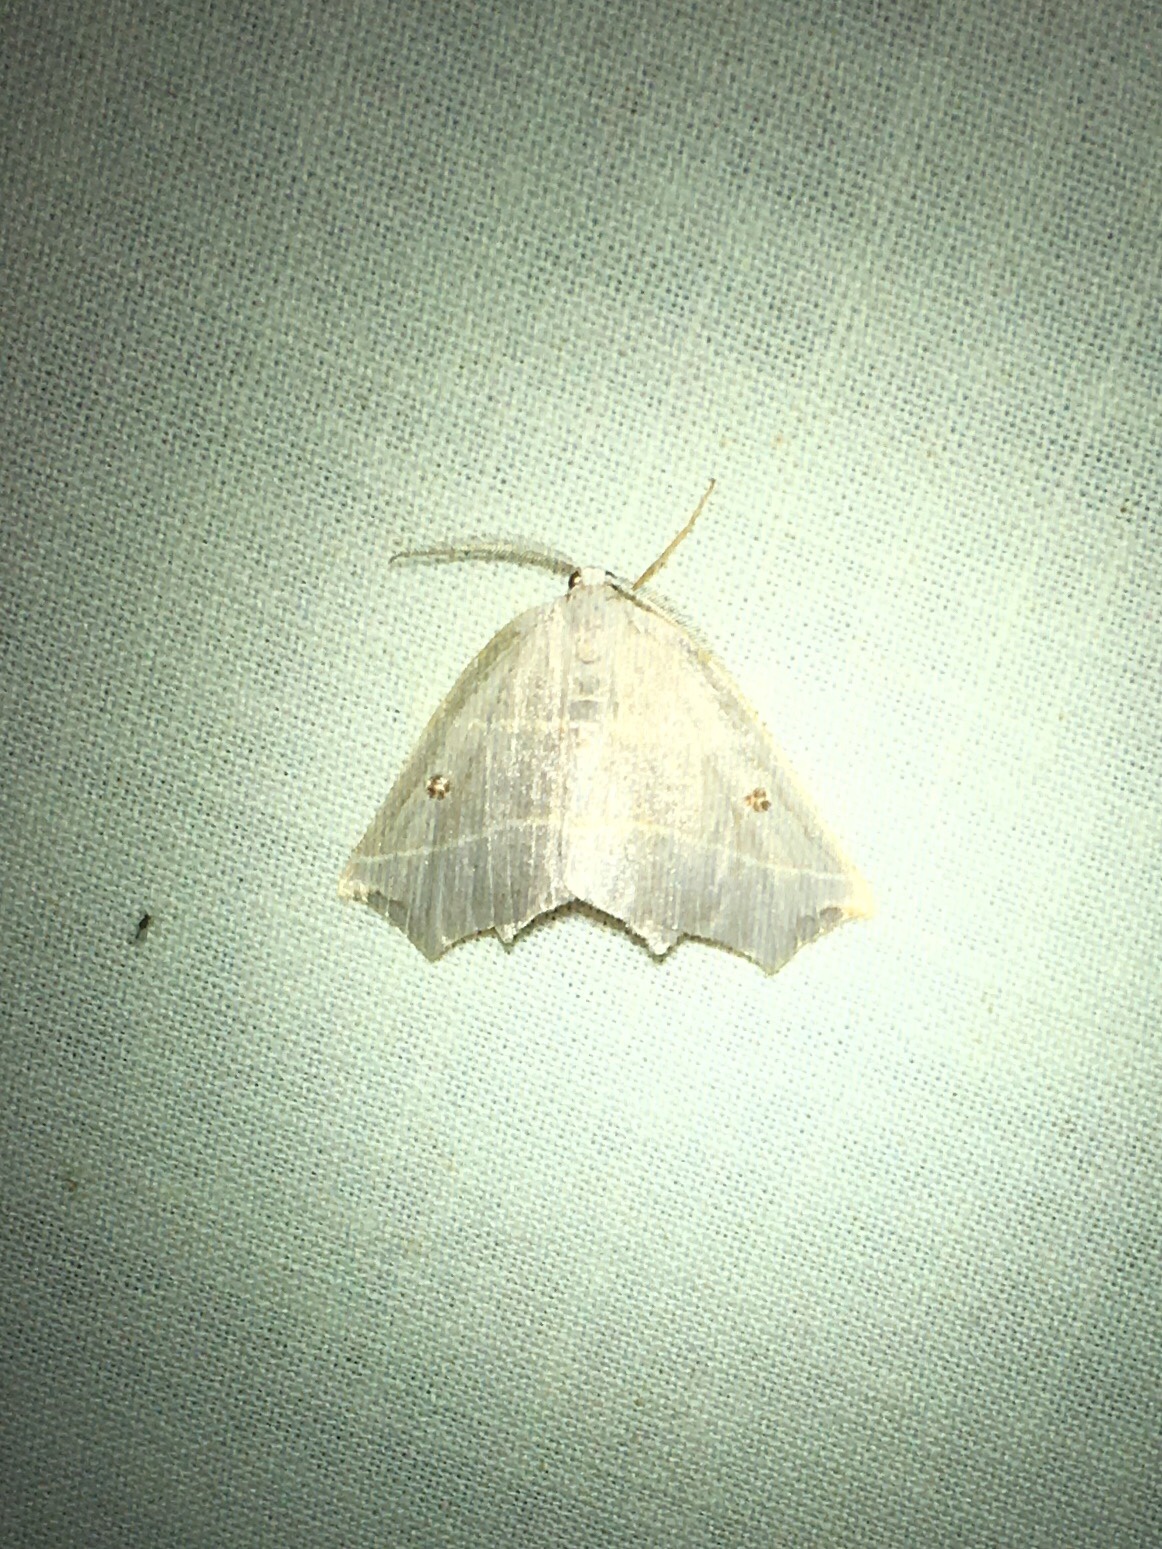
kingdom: Animalia
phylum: Arthropoda
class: Insecta
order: Lepidoptera
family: Geometridae
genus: Metanema
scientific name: Metanema inatomaria
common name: Pale metanema
